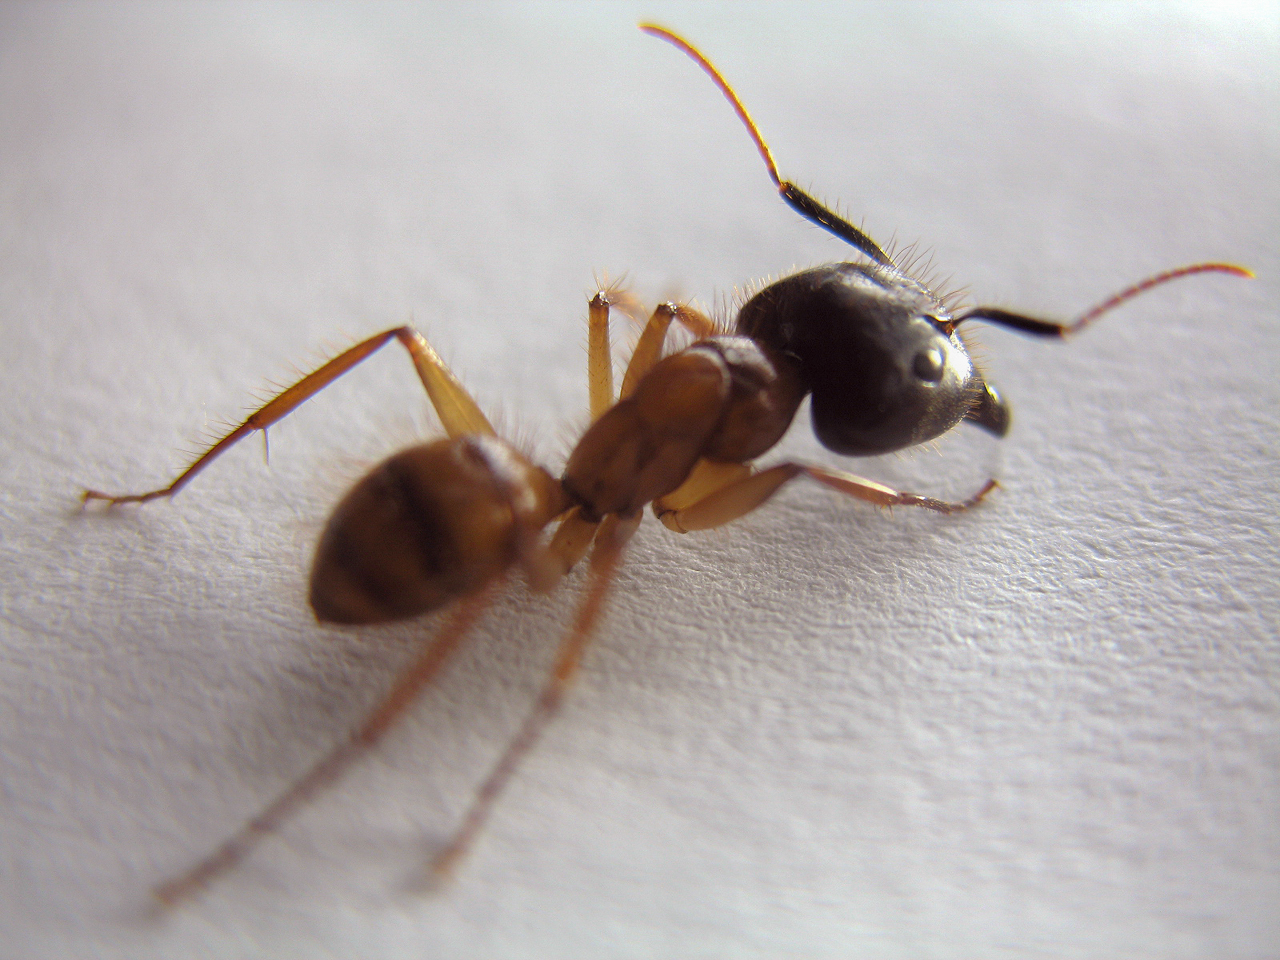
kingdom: Animalia
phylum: Arthropoda
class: Insecta
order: Hymenoptera
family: Formicidae
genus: Camponotus
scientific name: Camponotus atriceps
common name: Florida carpenter ant
